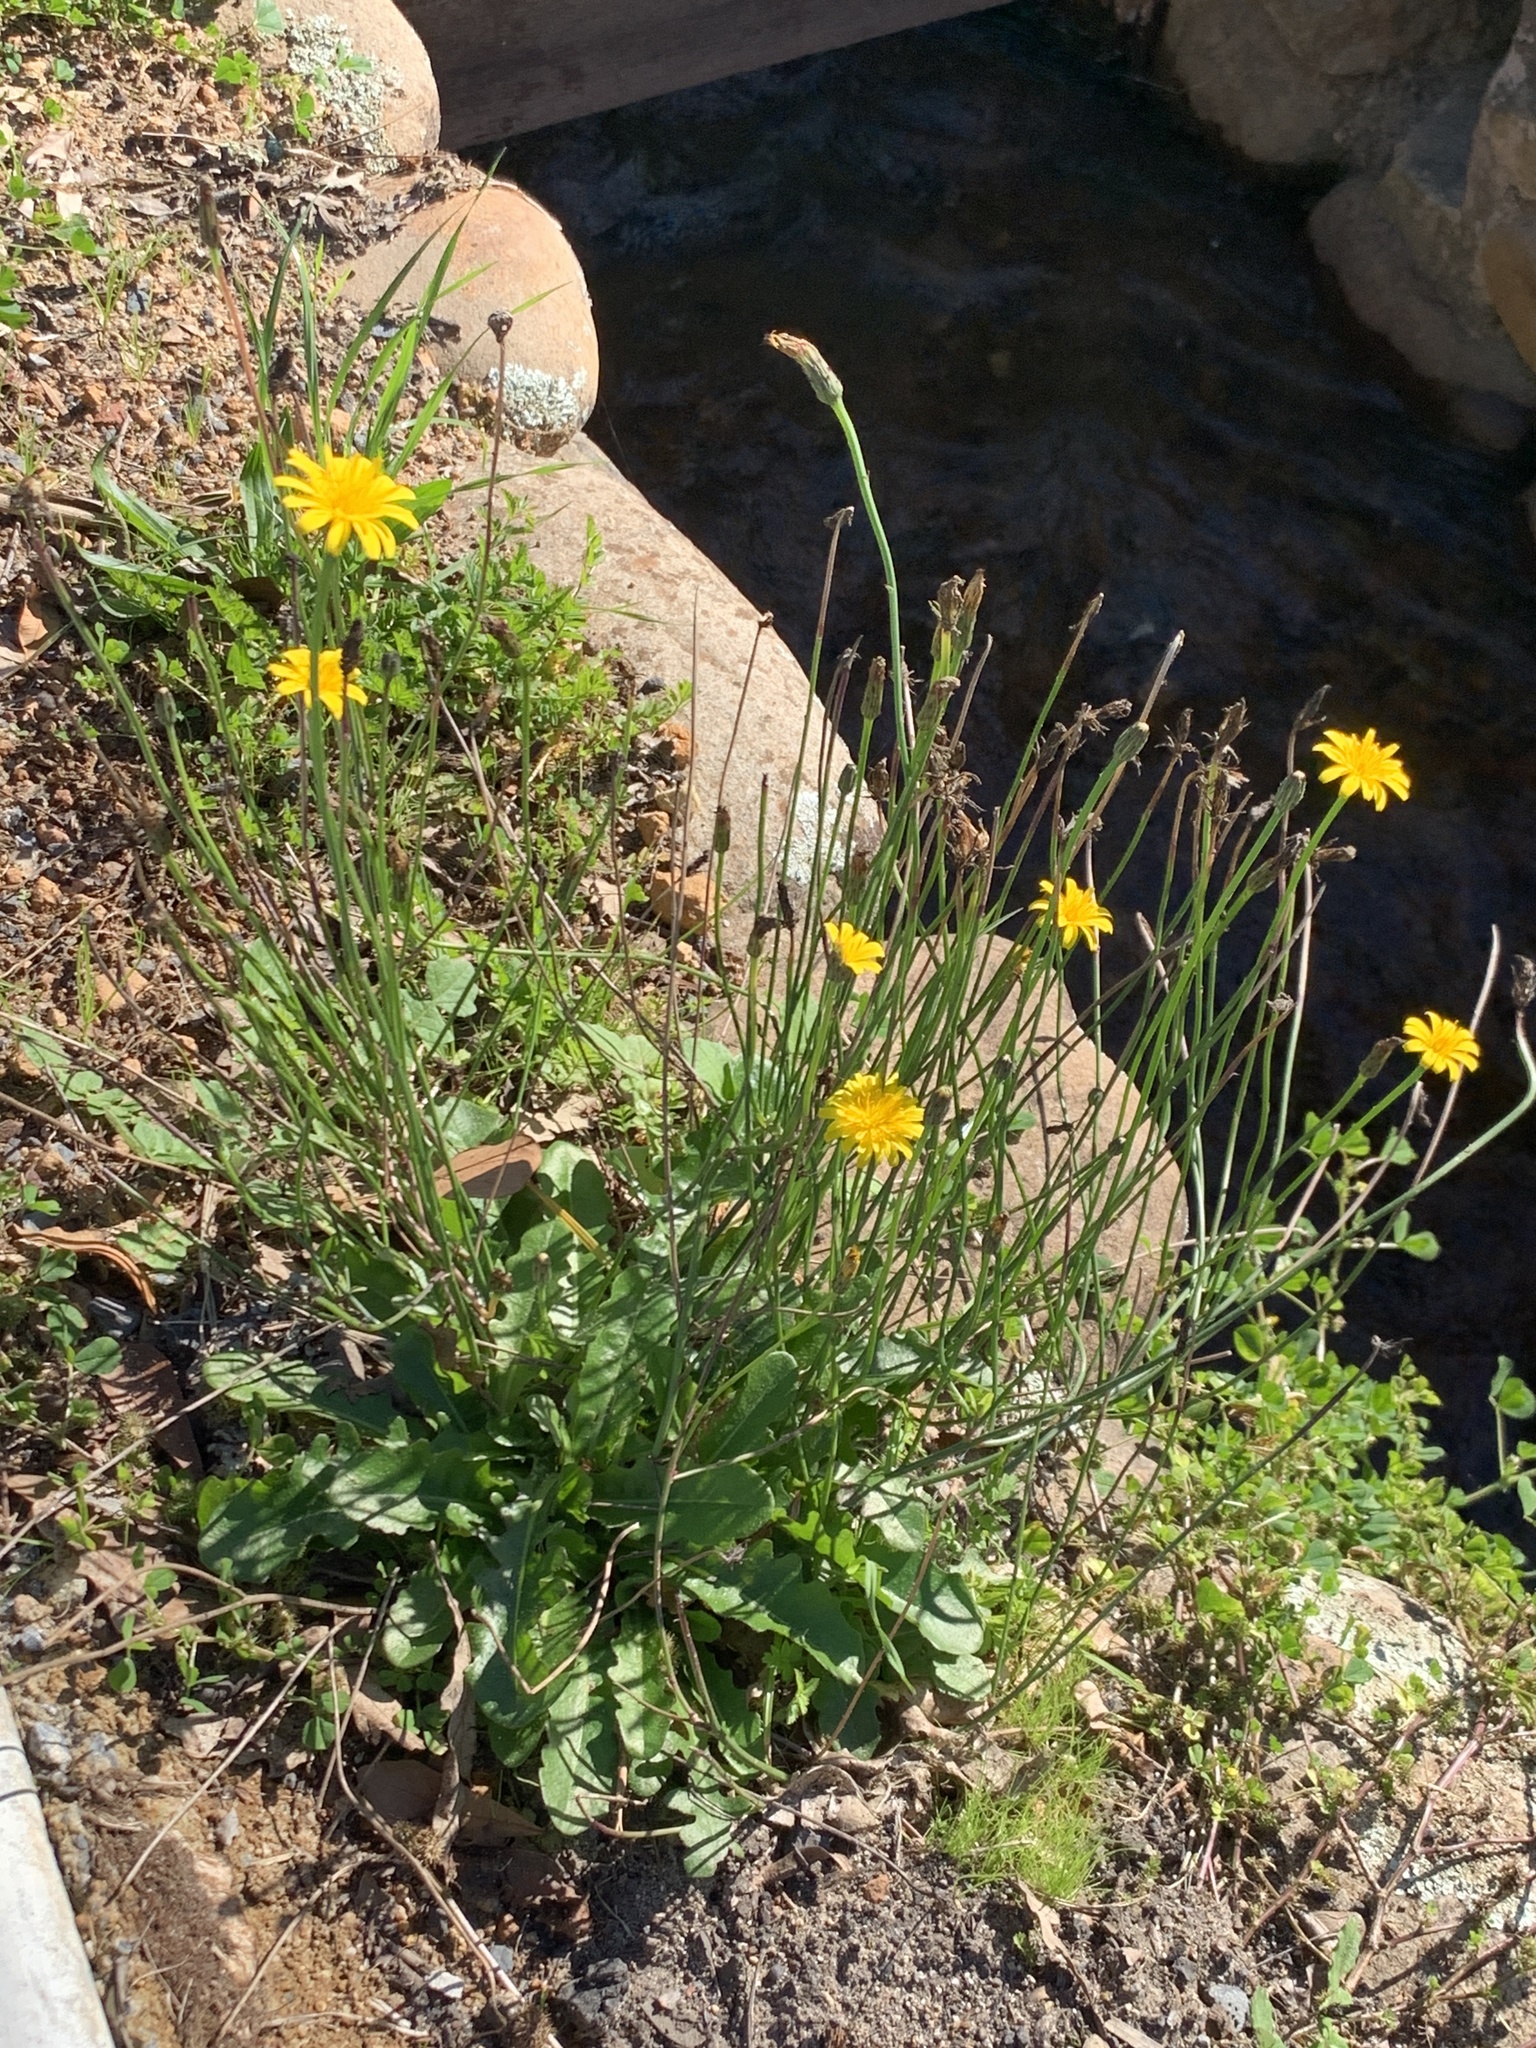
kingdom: Plantae
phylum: Tracheophyta
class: Magnoliopsida
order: Asterales
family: Asteraceae
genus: Hypochaeris
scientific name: Hypochaeris radicata
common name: Flatweed
